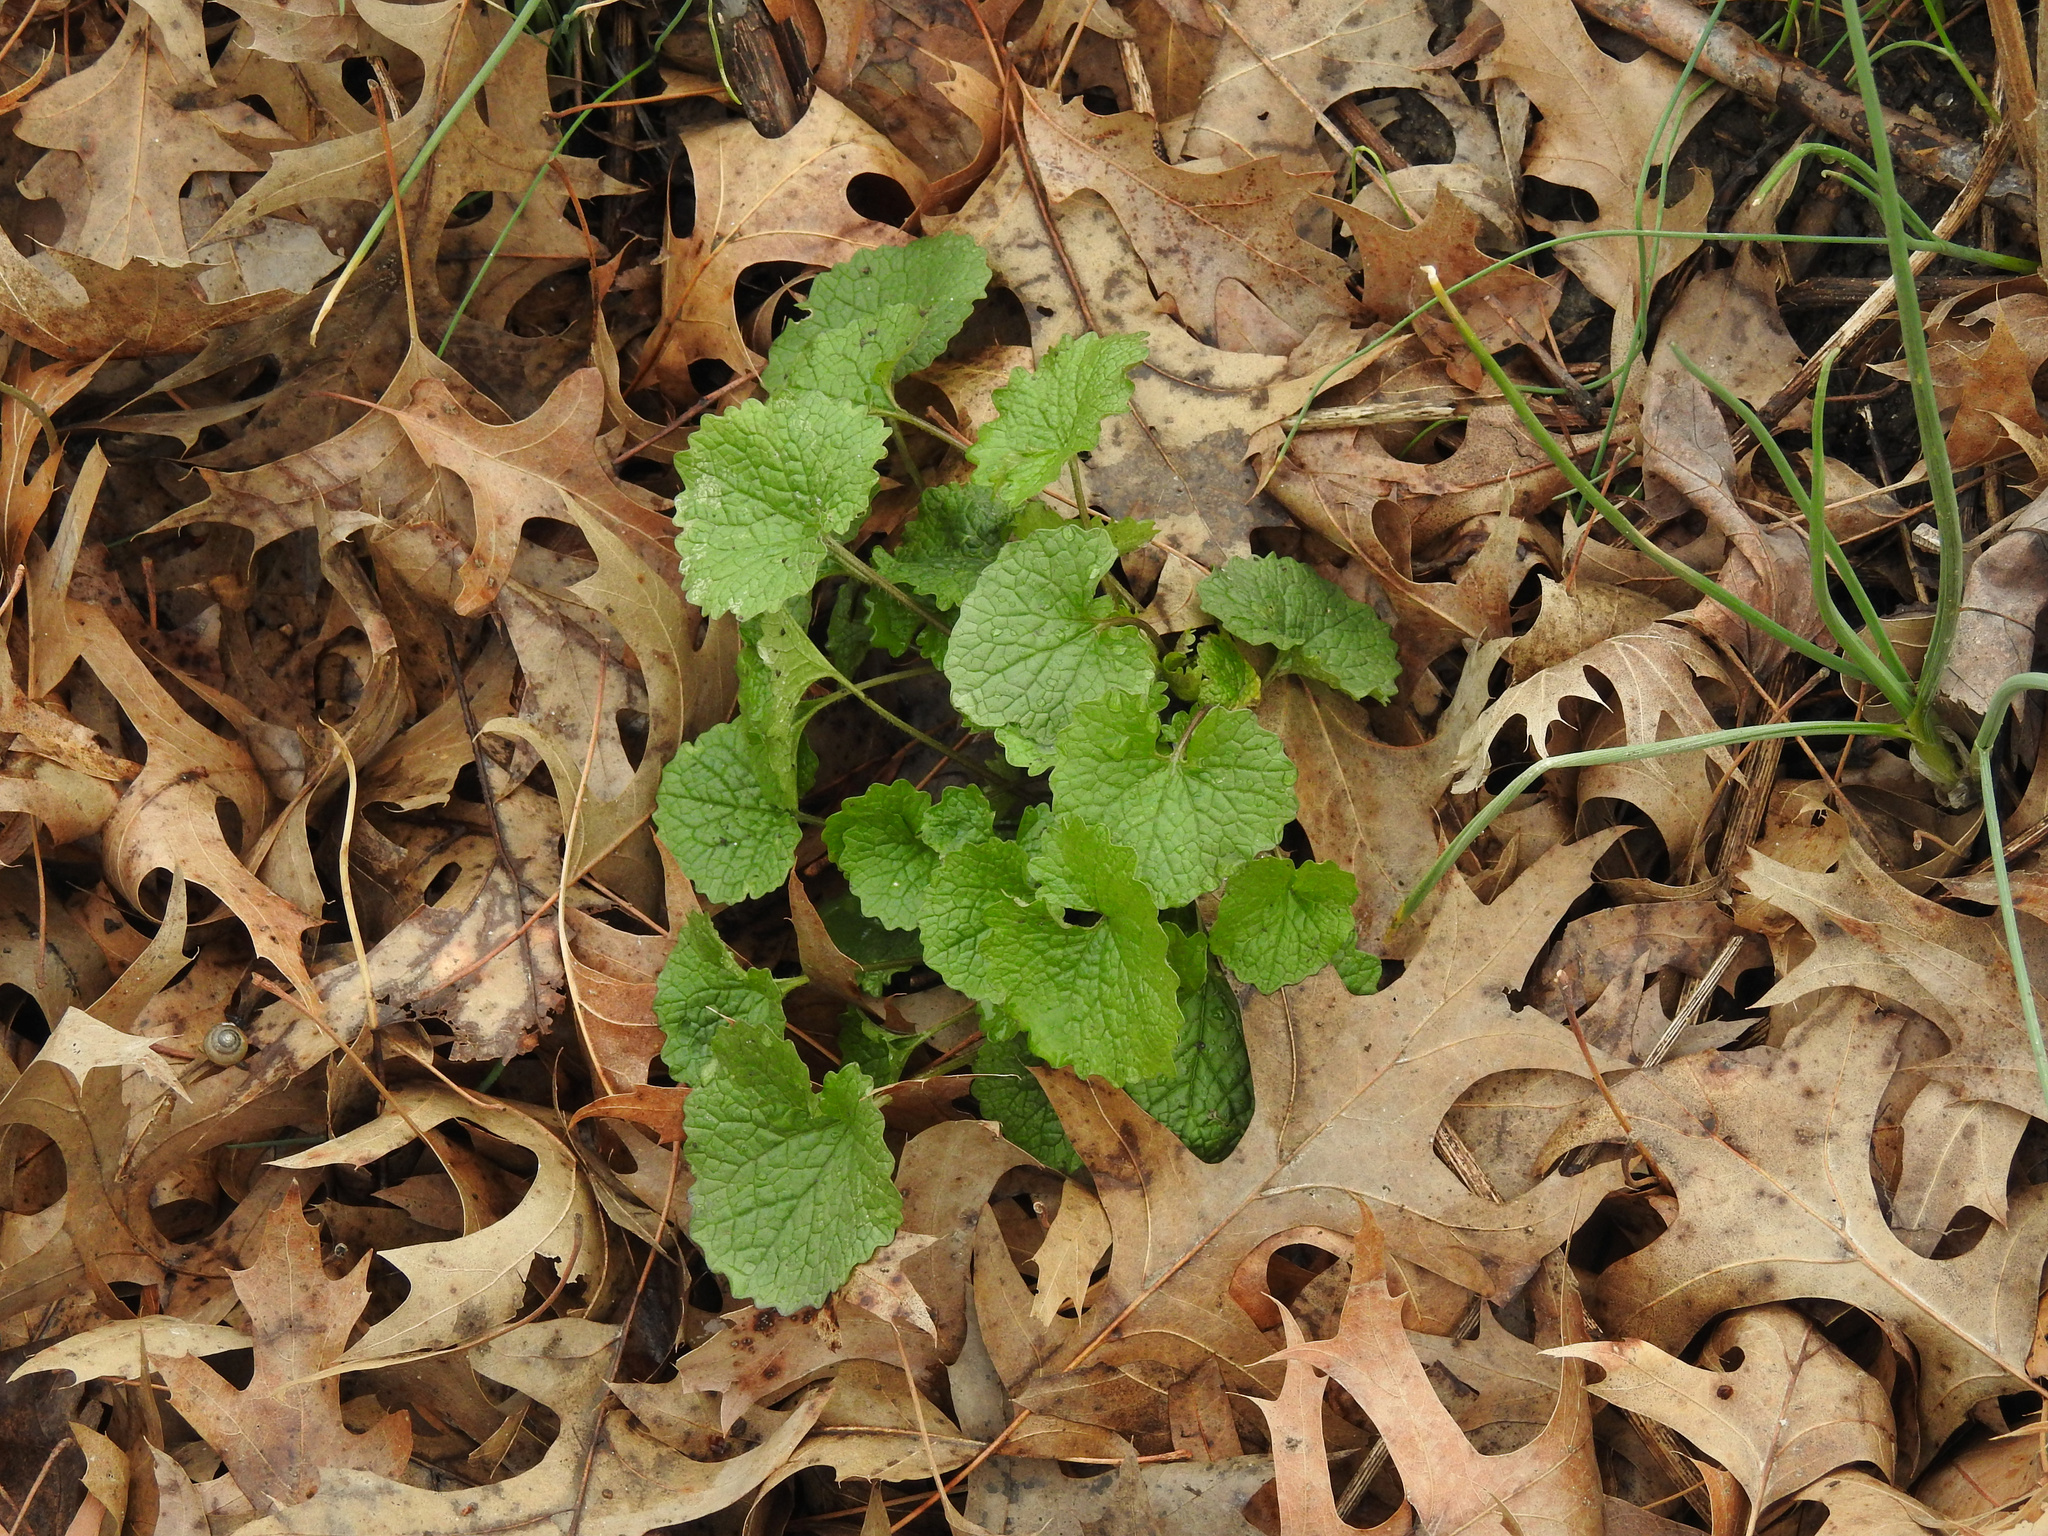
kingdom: Plantae
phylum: Tracheophyta
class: Magnoliopsida
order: Brassicales
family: Brassicaceae
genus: Alliaria
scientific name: Alliaria petiolata
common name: Garlic mustard
